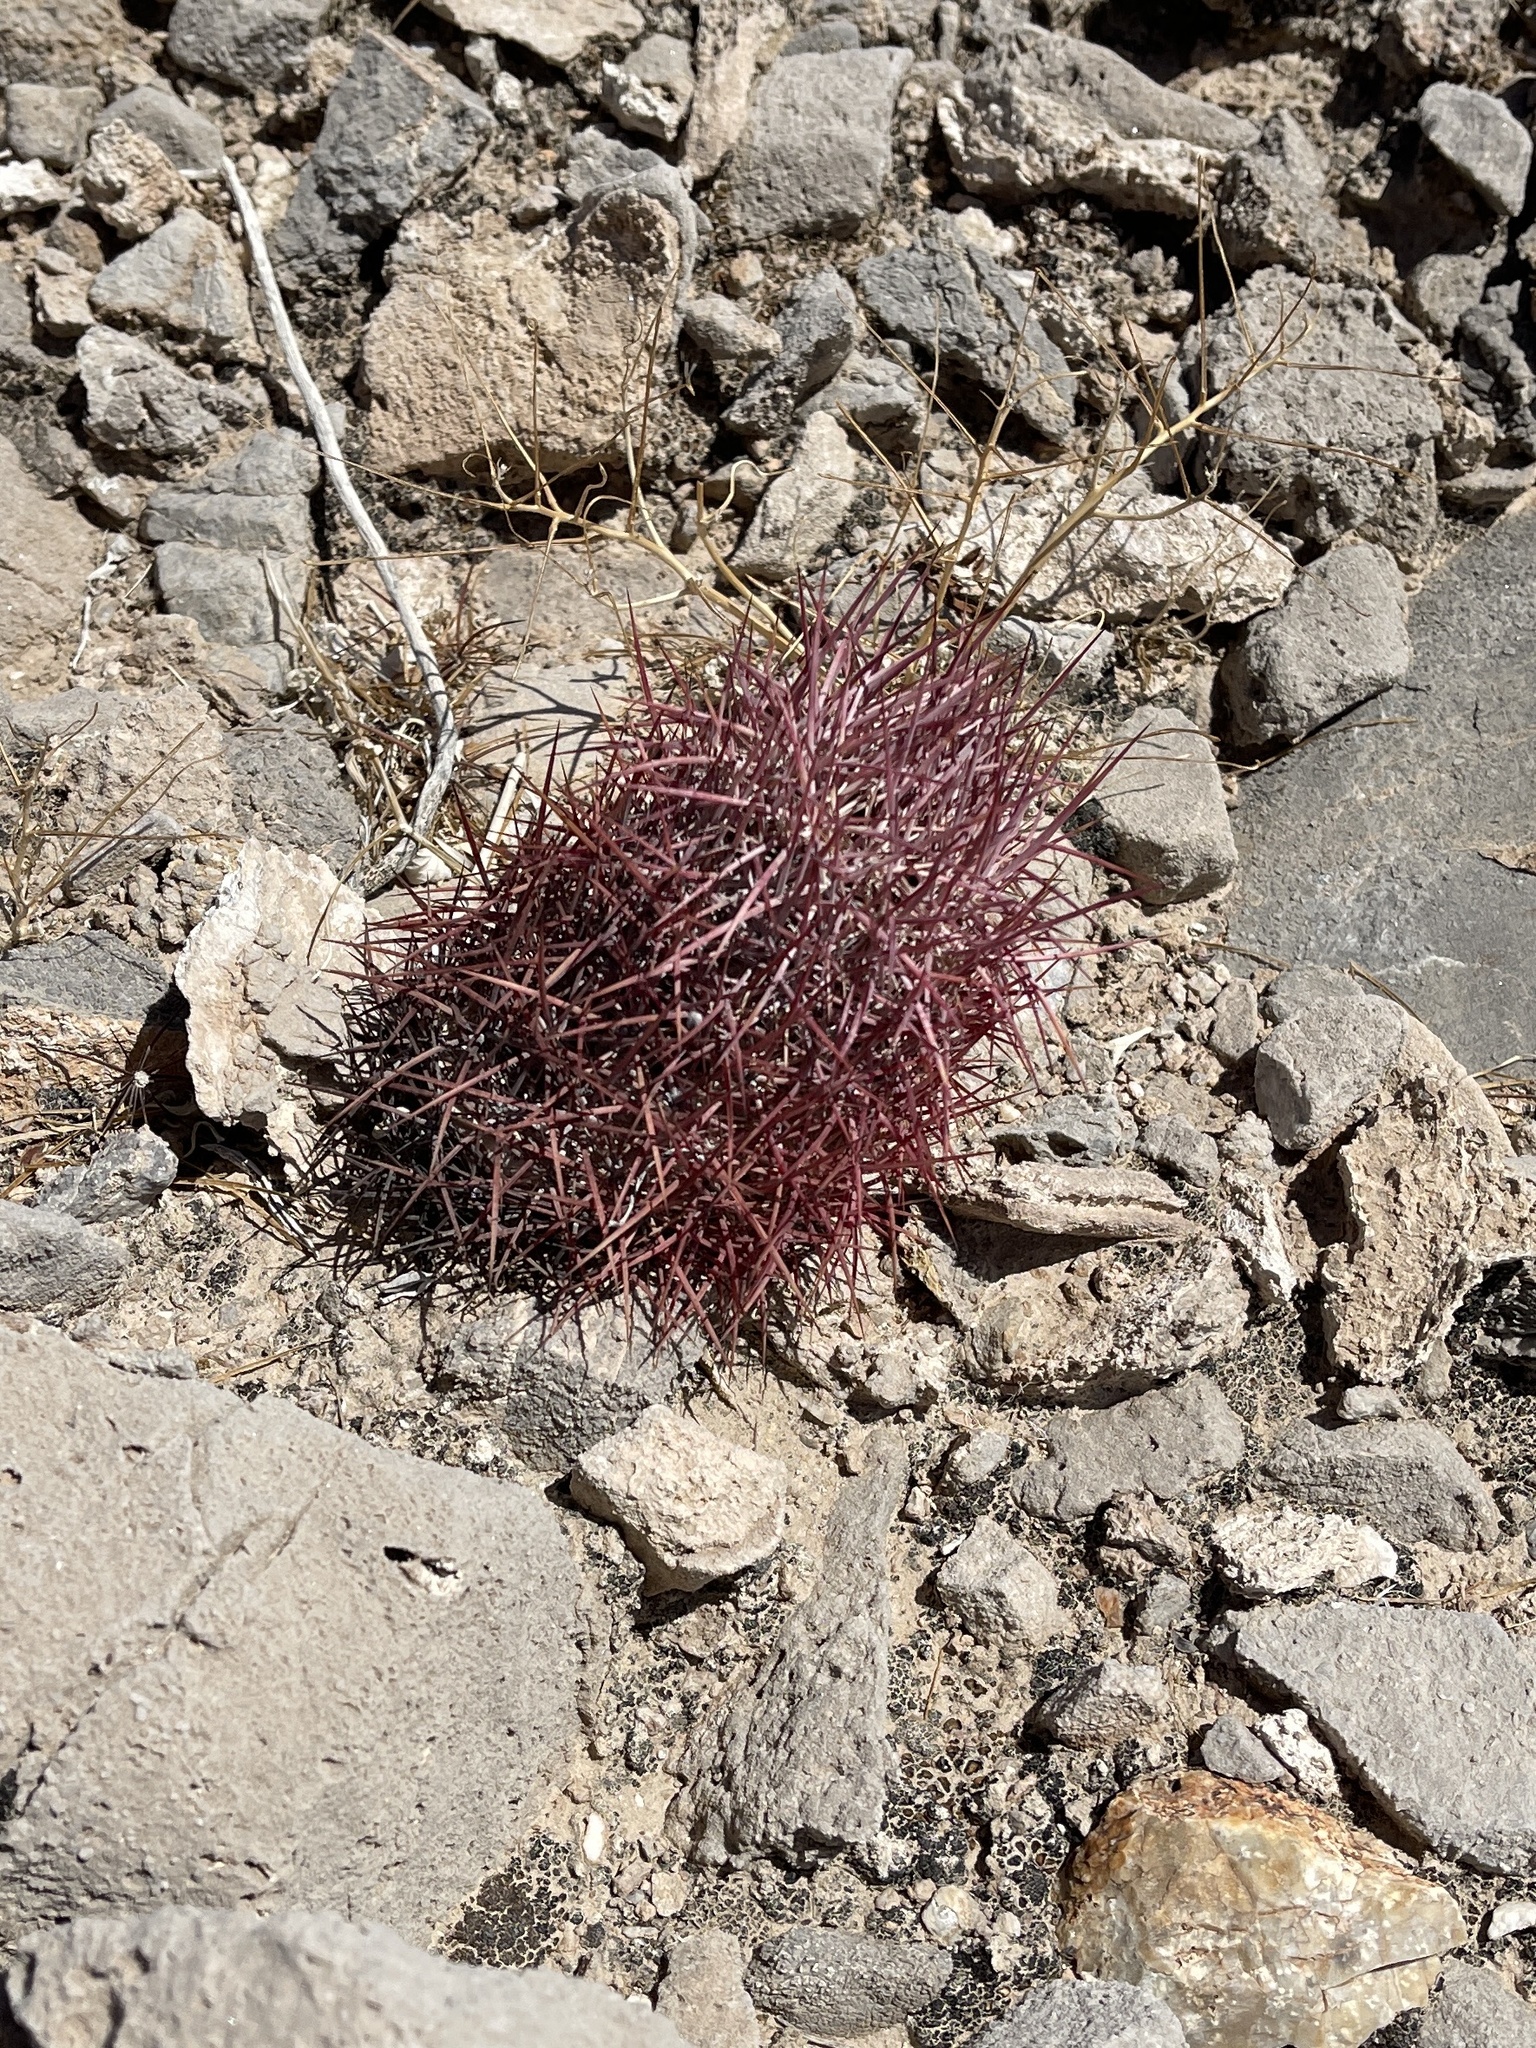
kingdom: Plantae
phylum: Tracheophyta
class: Magnoliopsida
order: Caryophyllales
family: Cactaceae
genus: Sclerocactus
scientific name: Sclerocactus johnsonii
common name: Eight-spine fishhook cactus
